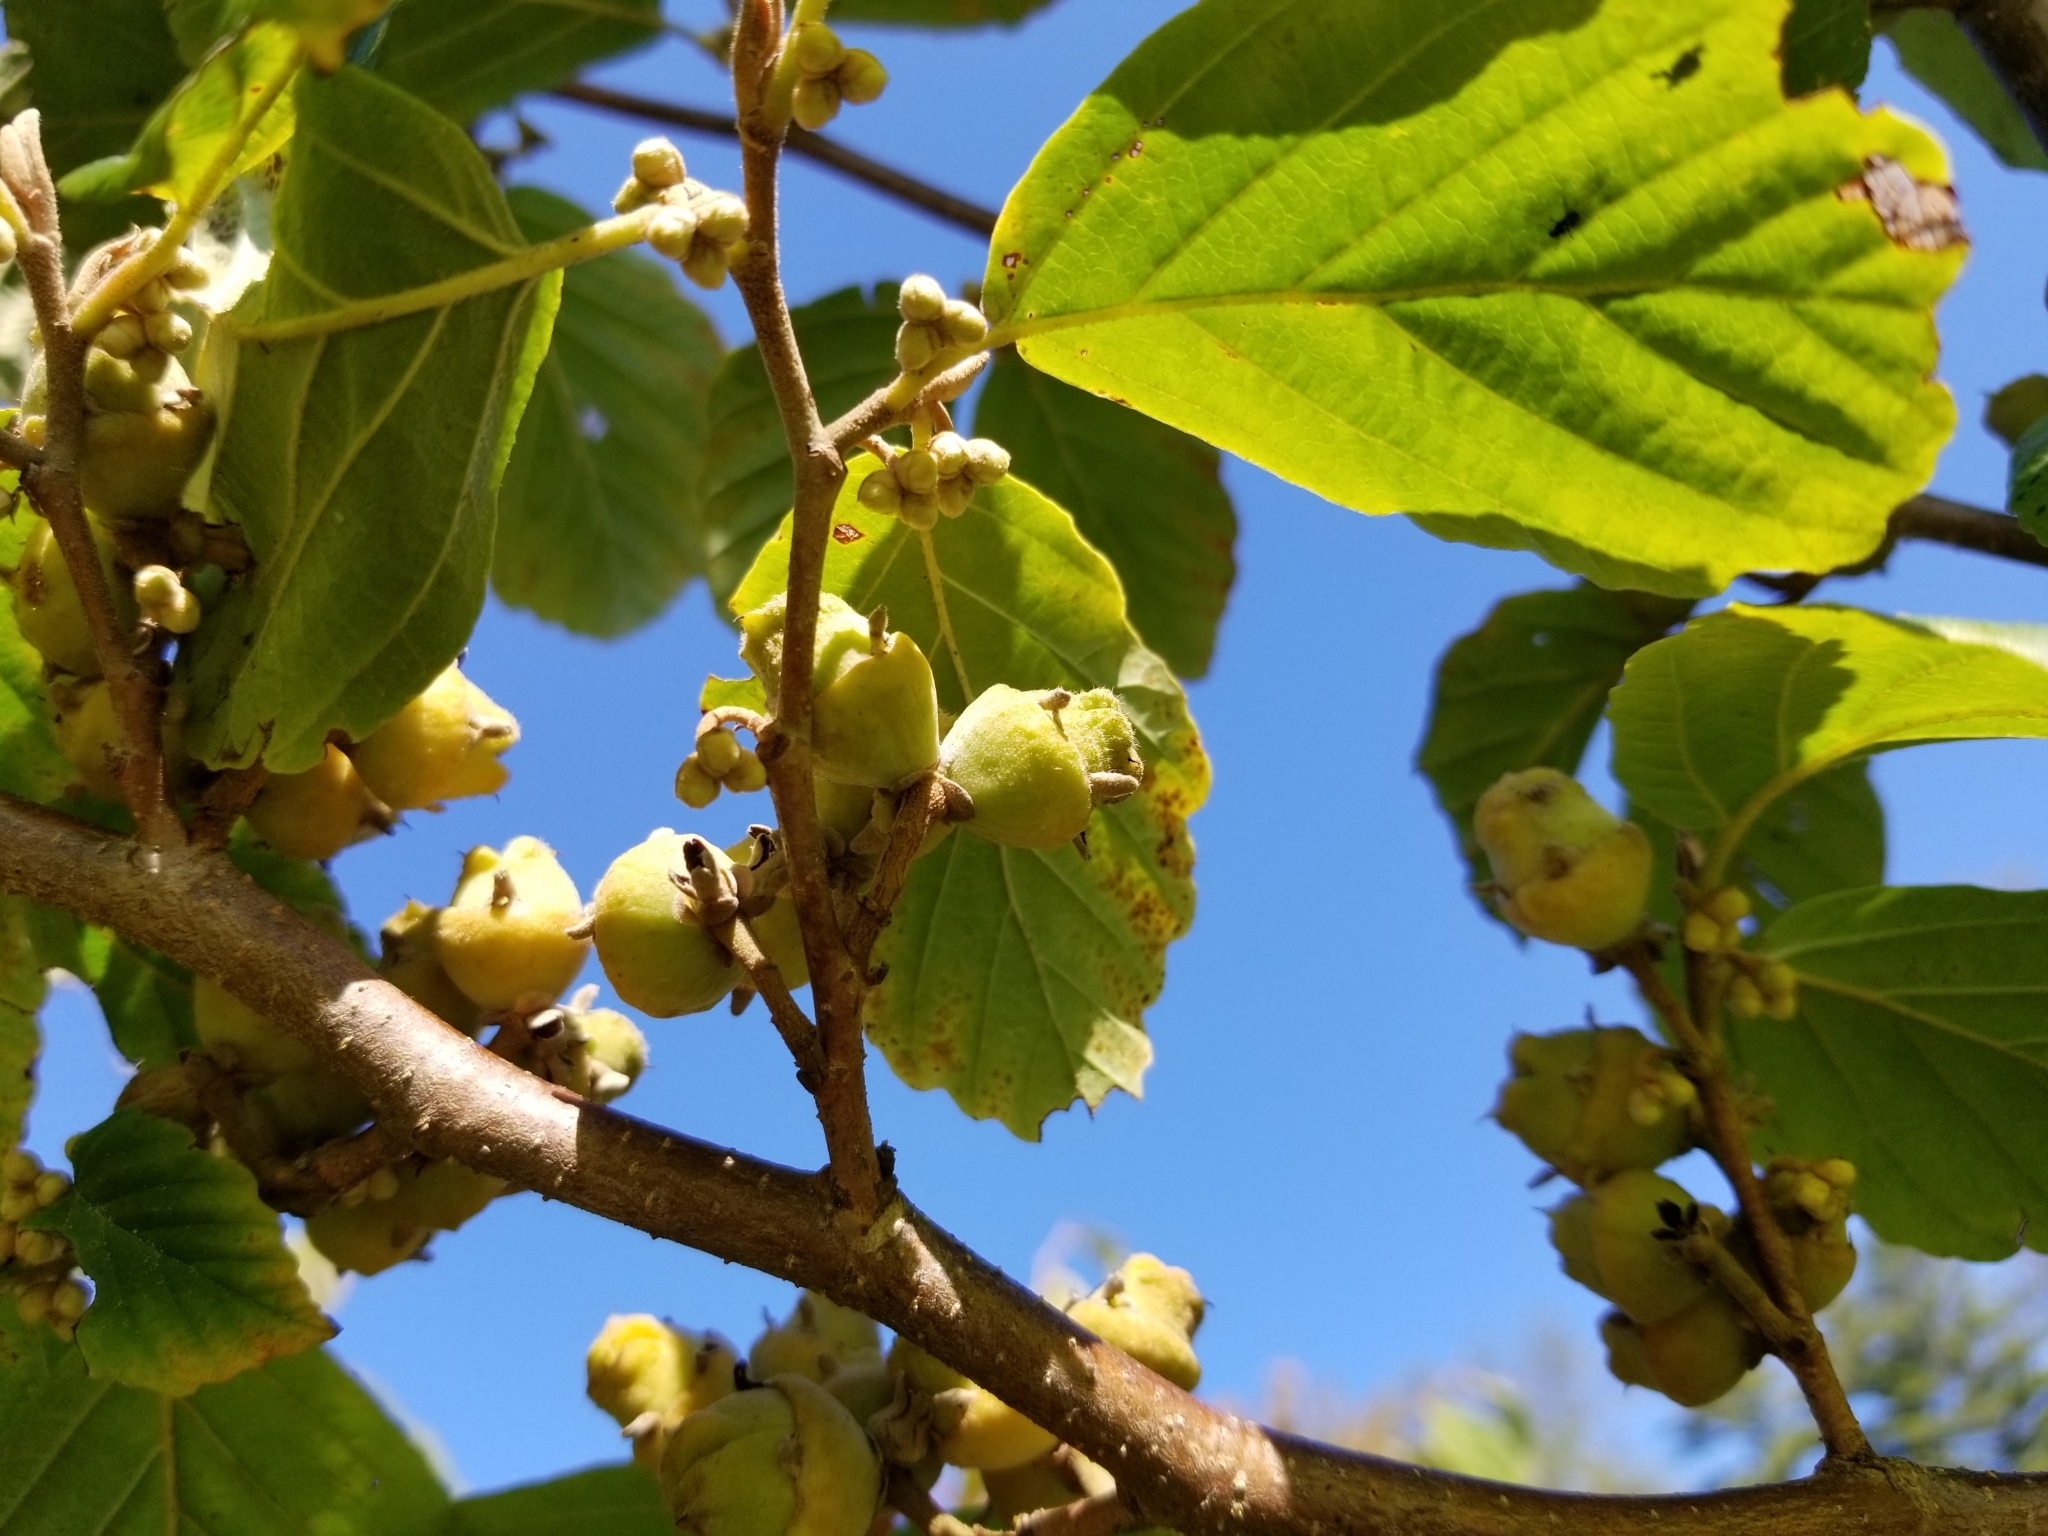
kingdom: Plantae
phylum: Tracheophyta
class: Magnoliopsida
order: Saxifragales
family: Hamamelidaceae
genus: Hamamelis
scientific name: Hamamelis virginiana
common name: Witch-hazel
